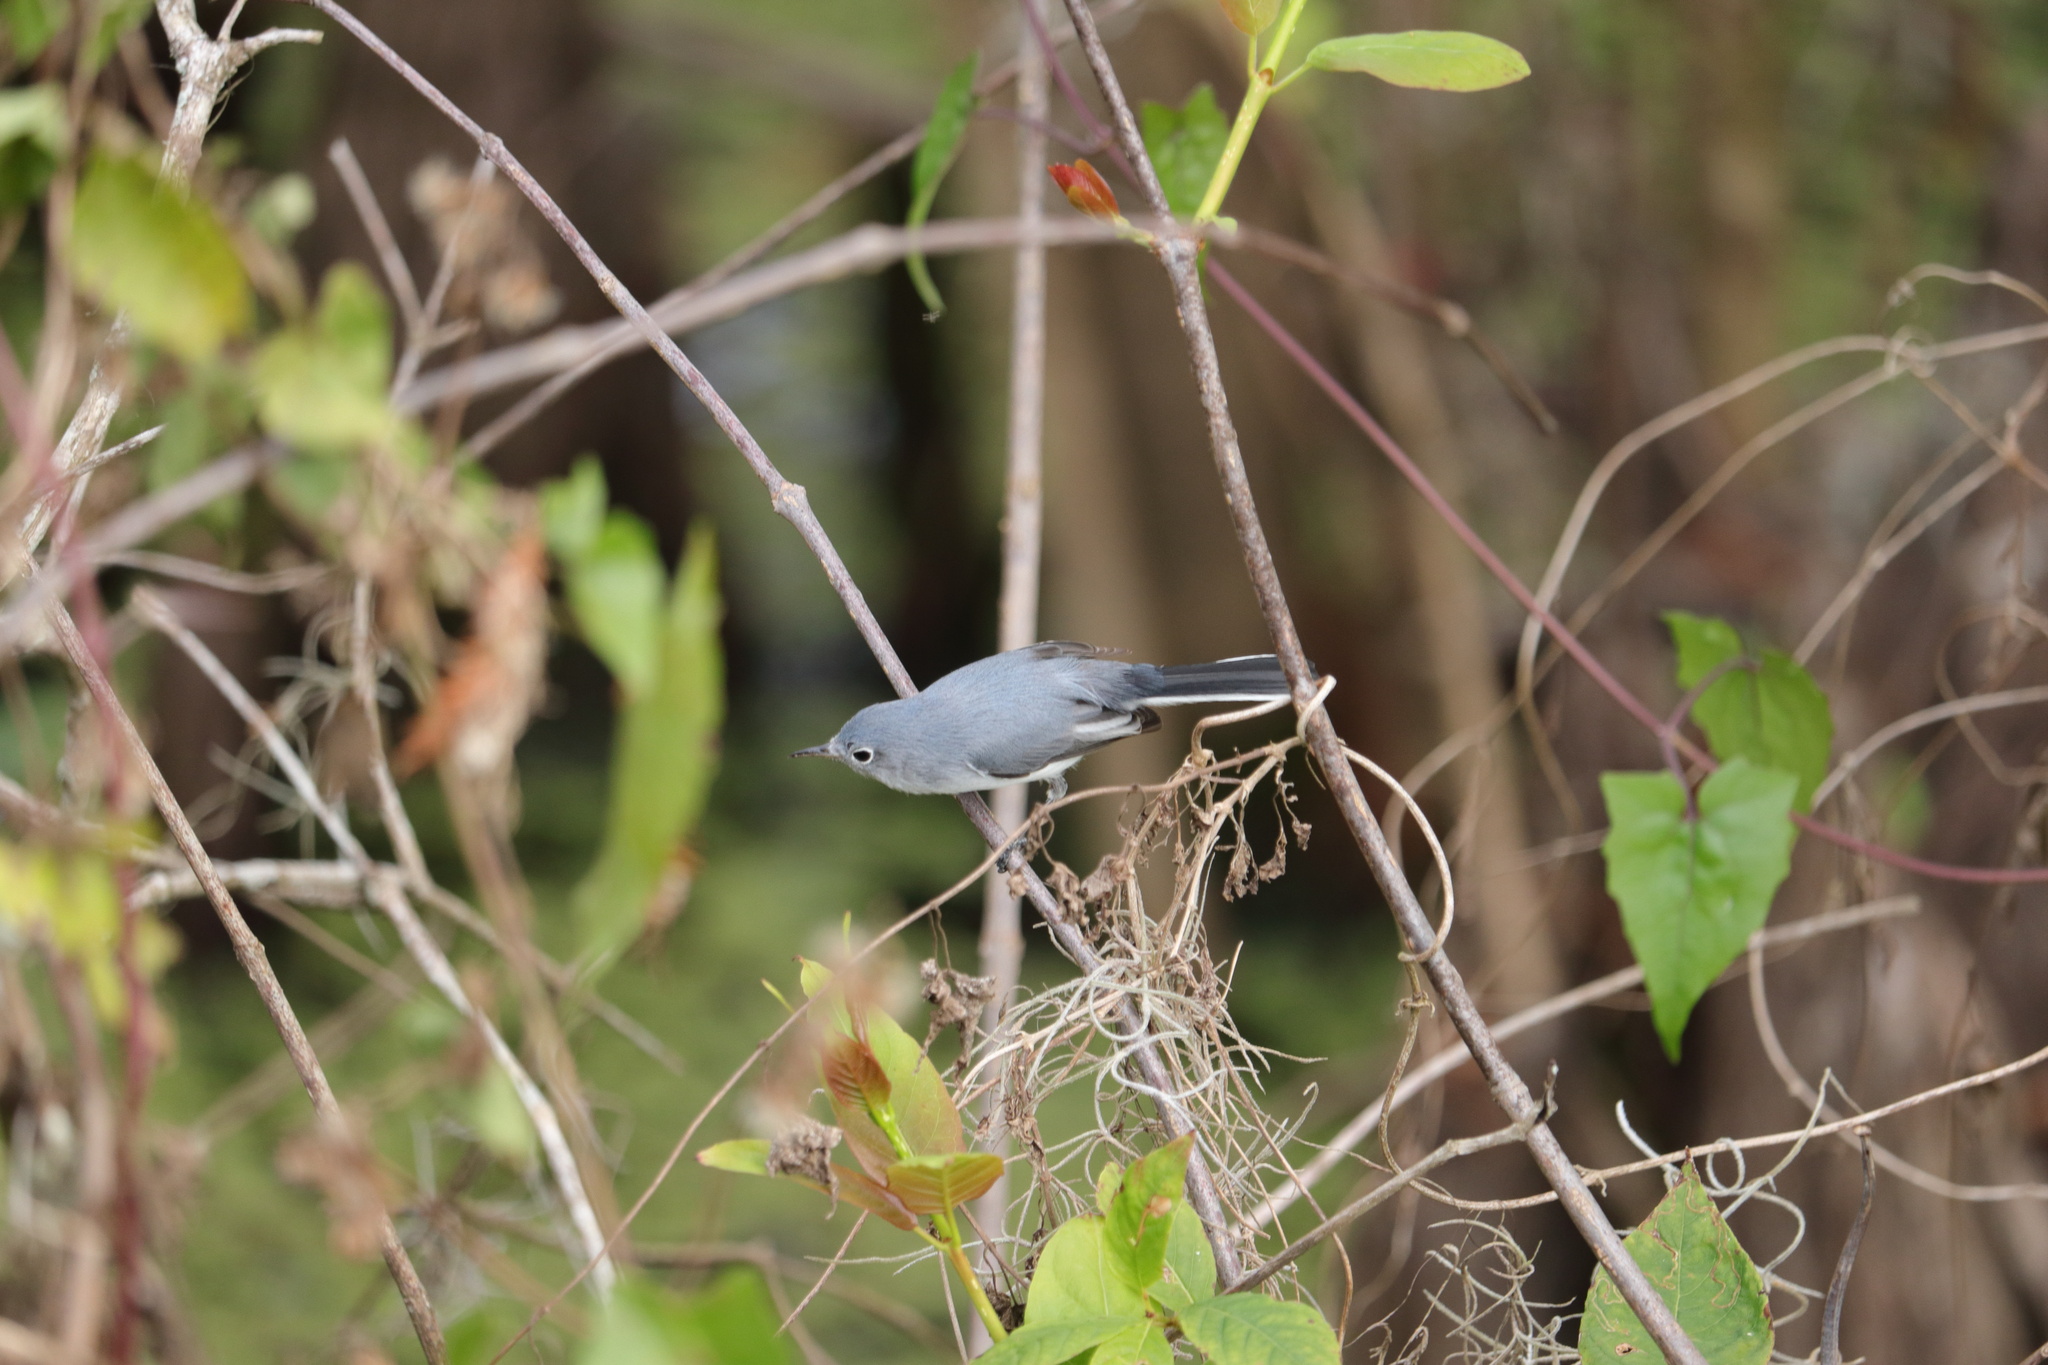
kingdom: Animalia
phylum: Chordata
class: Aves
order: Passeriformes
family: Polioptilidae
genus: Polioptila
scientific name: Polioptila caerulea
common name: Blue-gray gnatcatcher
